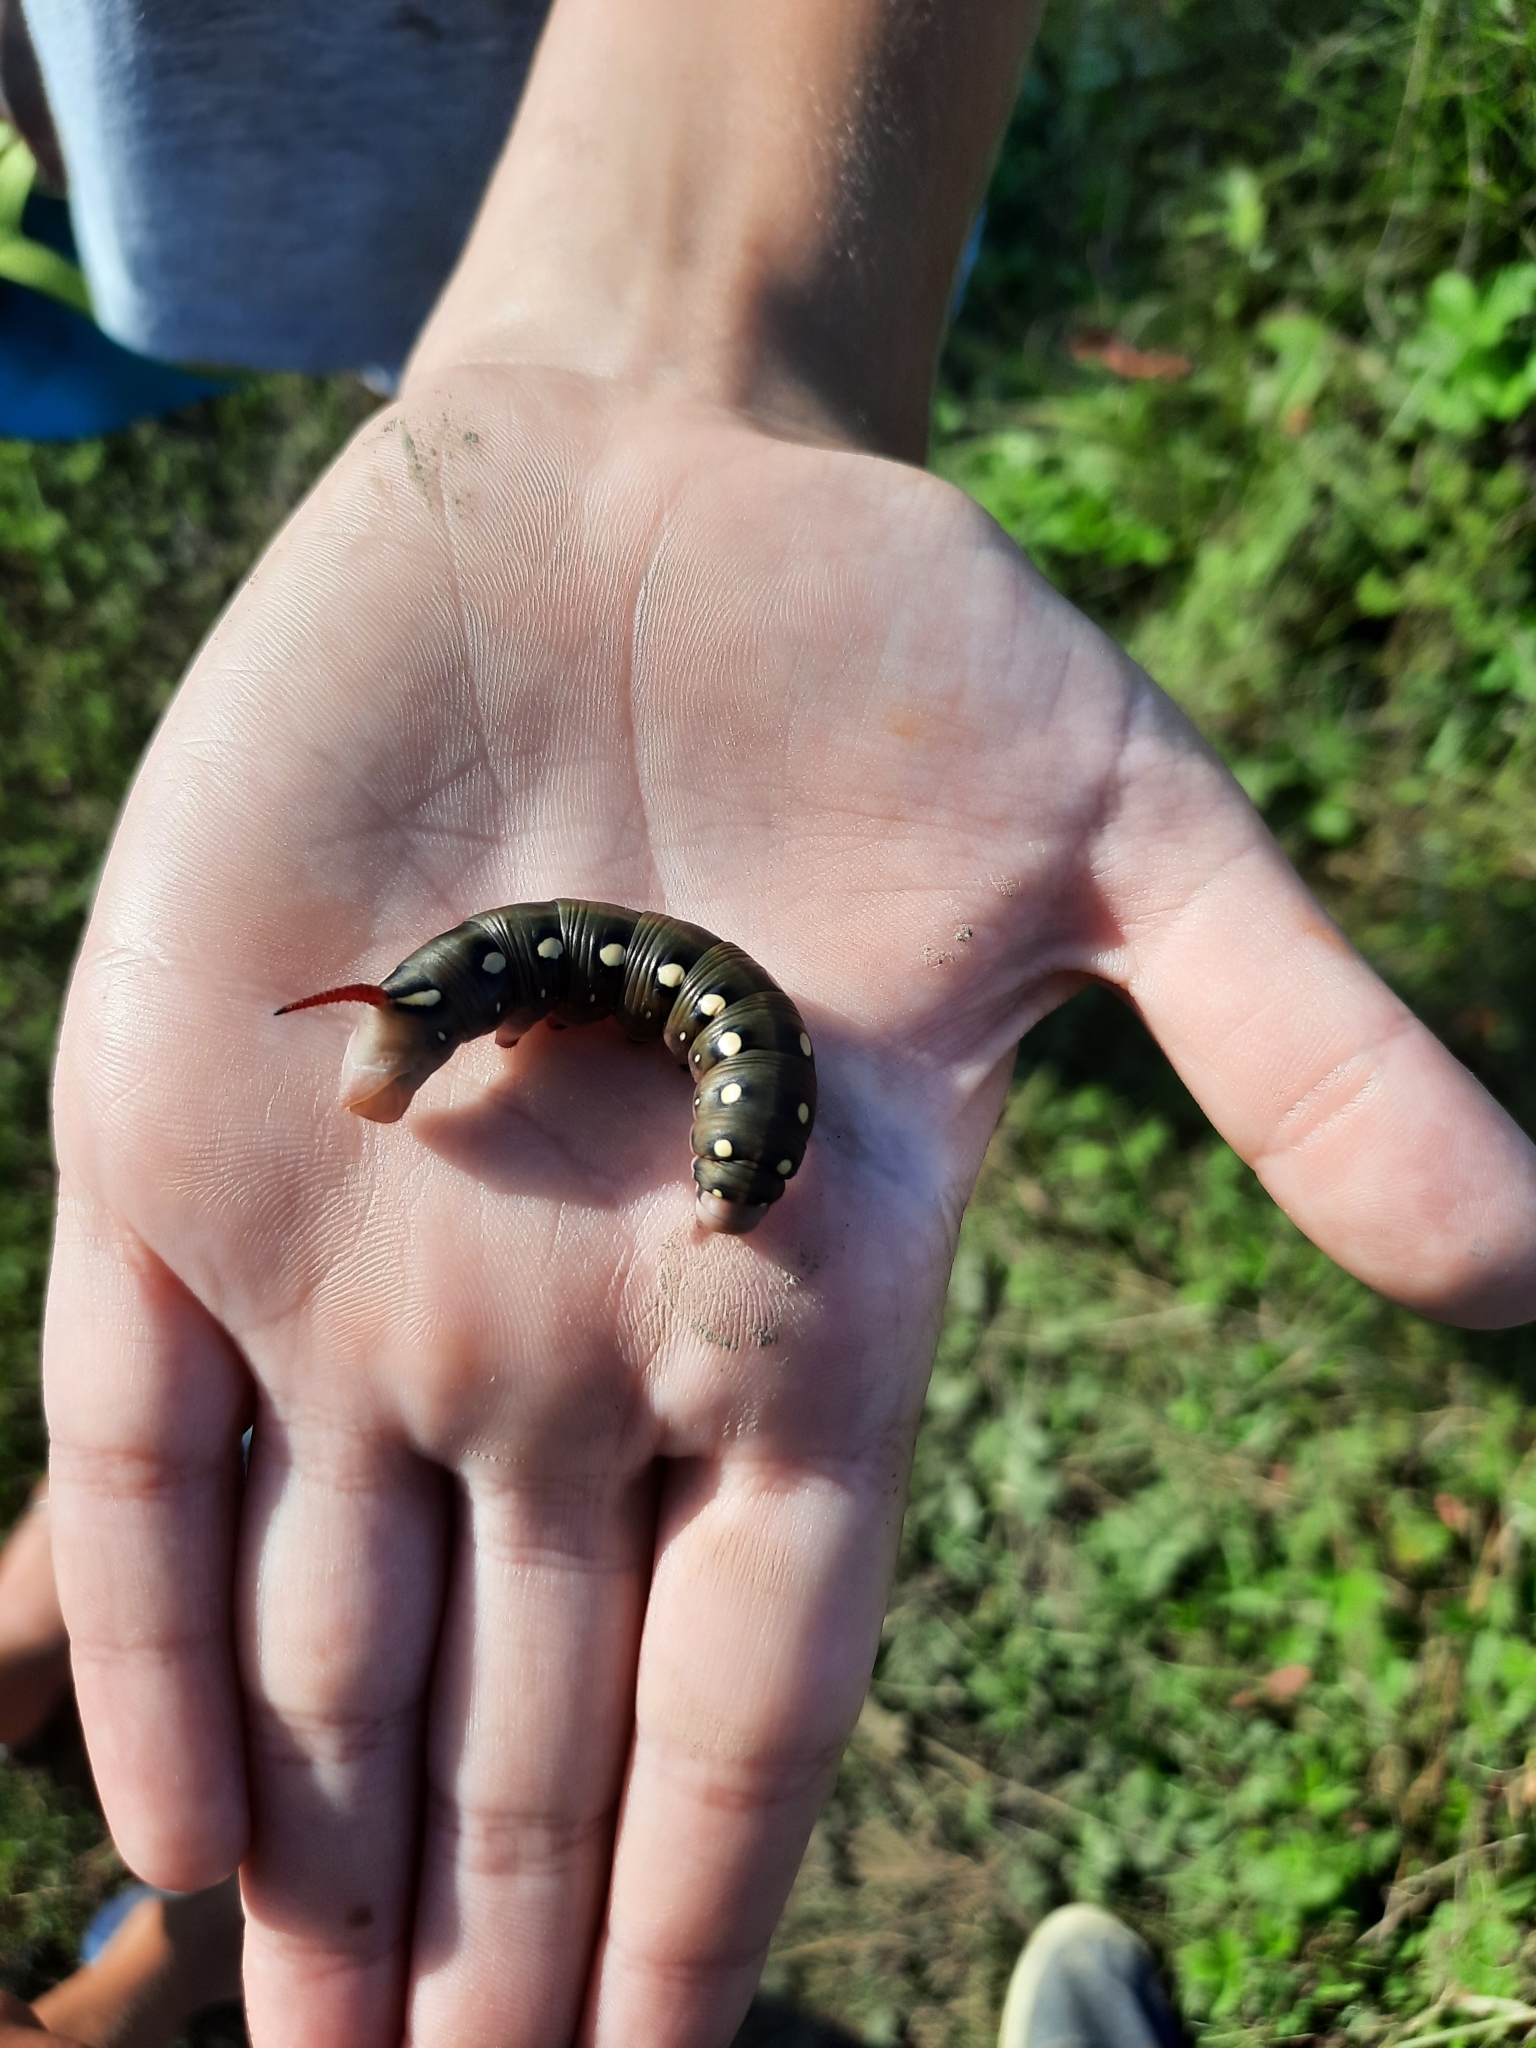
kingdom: Animalia
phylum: Arthropoda
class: Insecta
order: Lepidoptera
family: Sphingidae
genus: Hyles
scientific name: Hyles gallii
